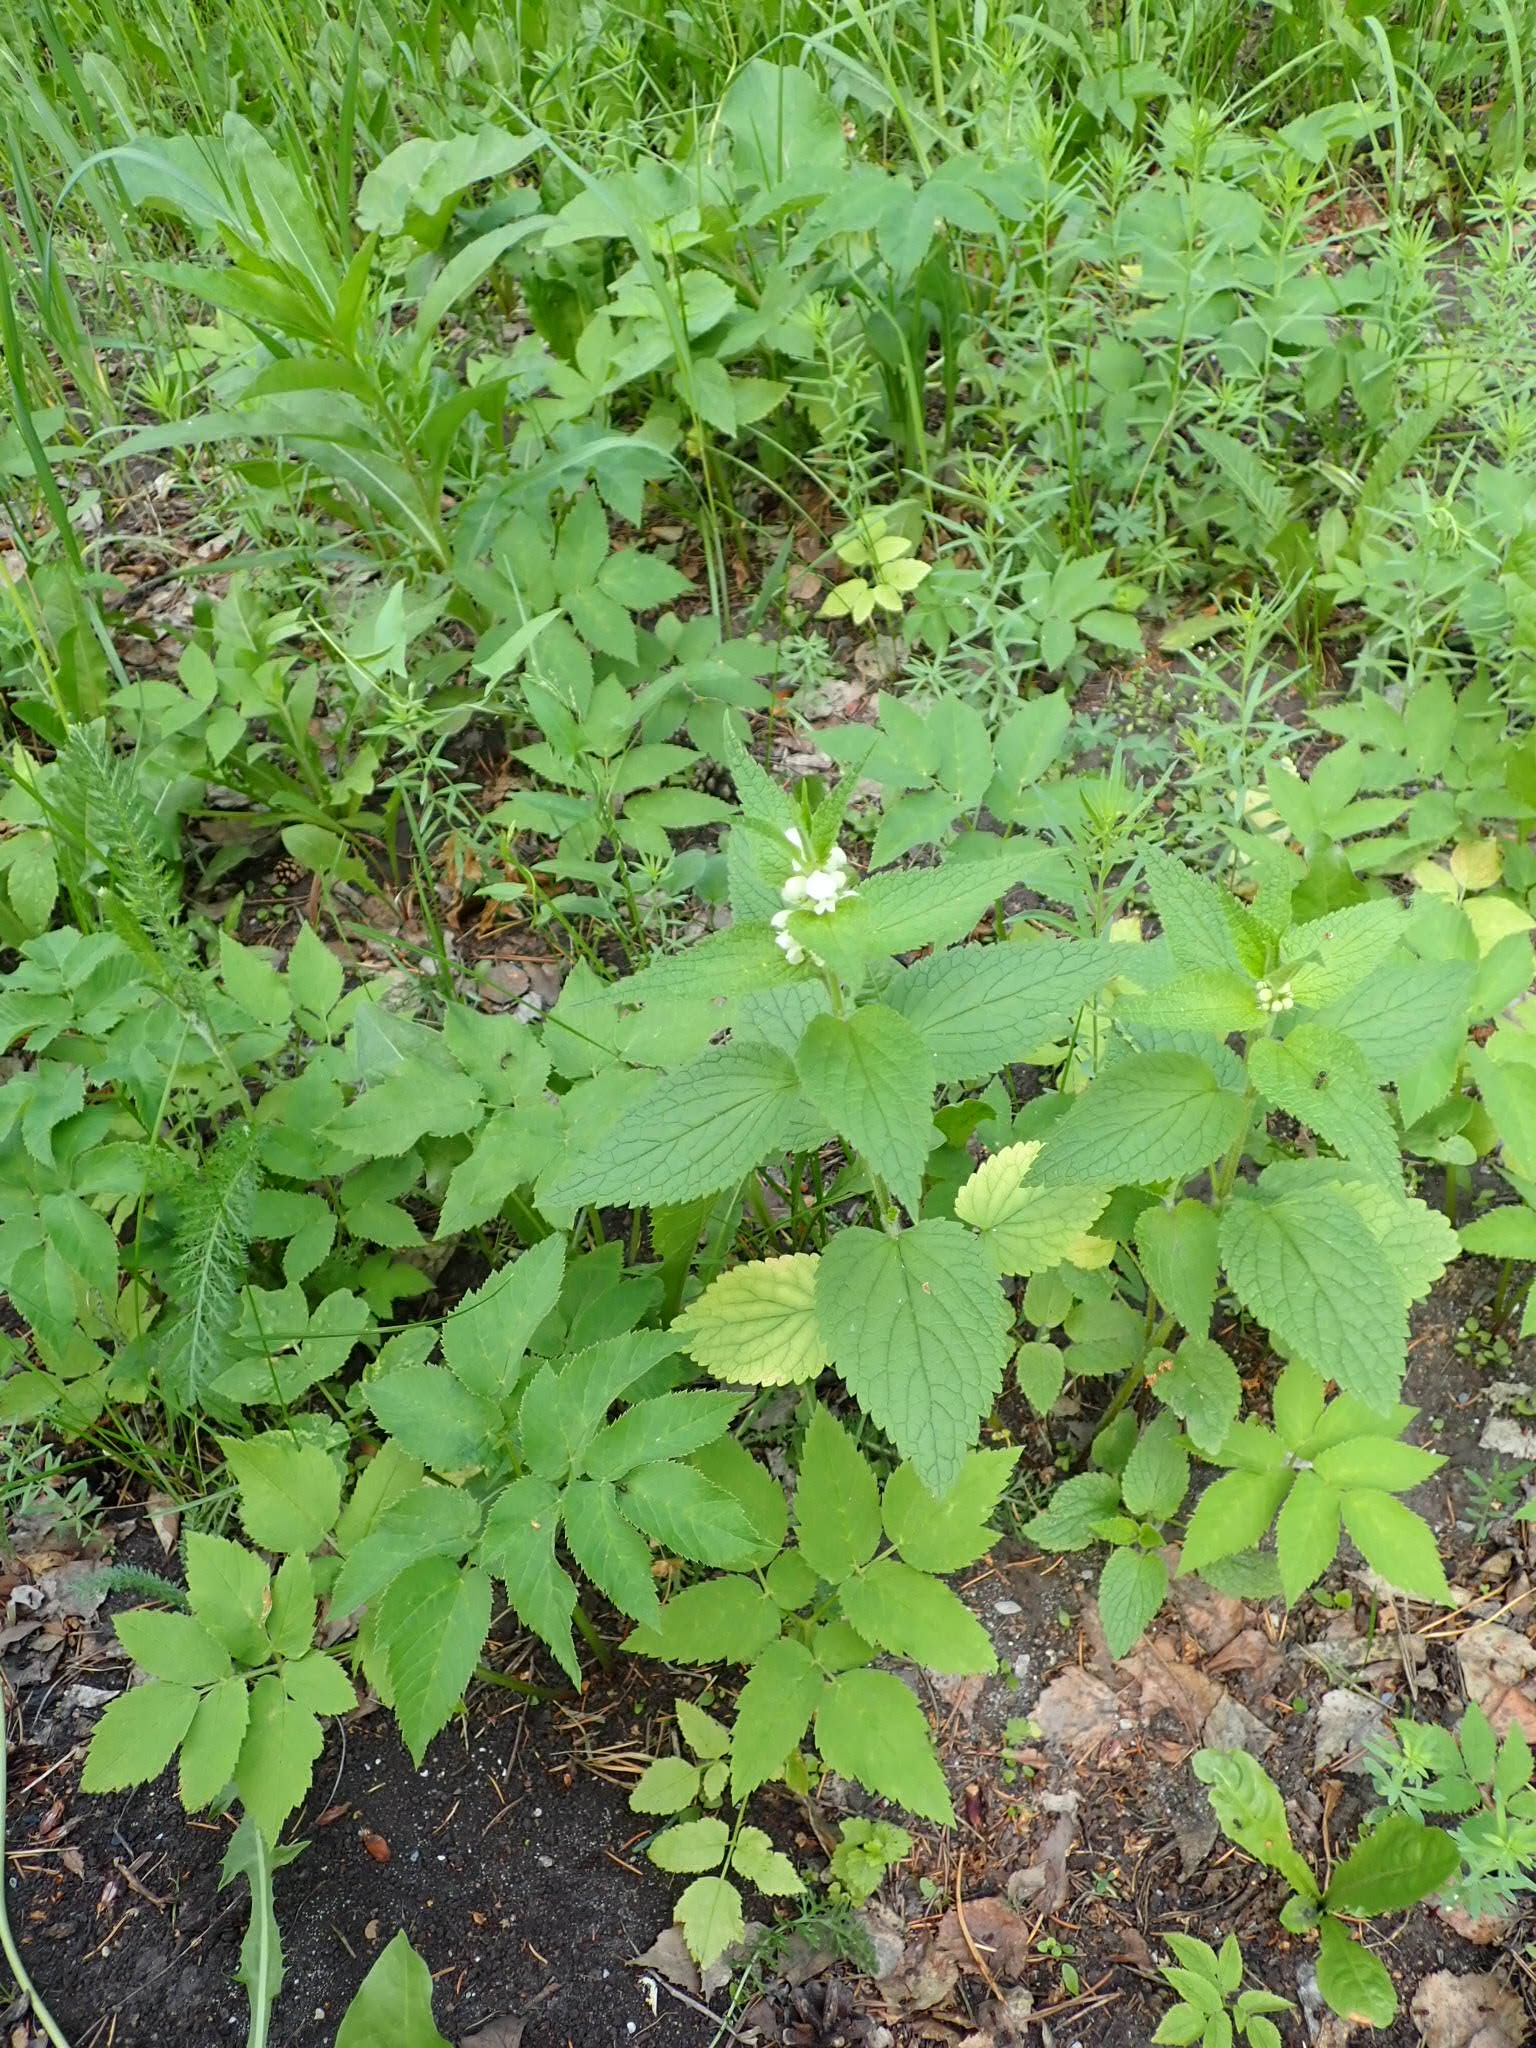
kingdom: Plantae
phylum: Tracheophyta
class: Magnoliopsida
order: Lamiales
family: Lamiaceae
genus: Lamium
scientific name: Lamium album
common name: White dead-nettle
